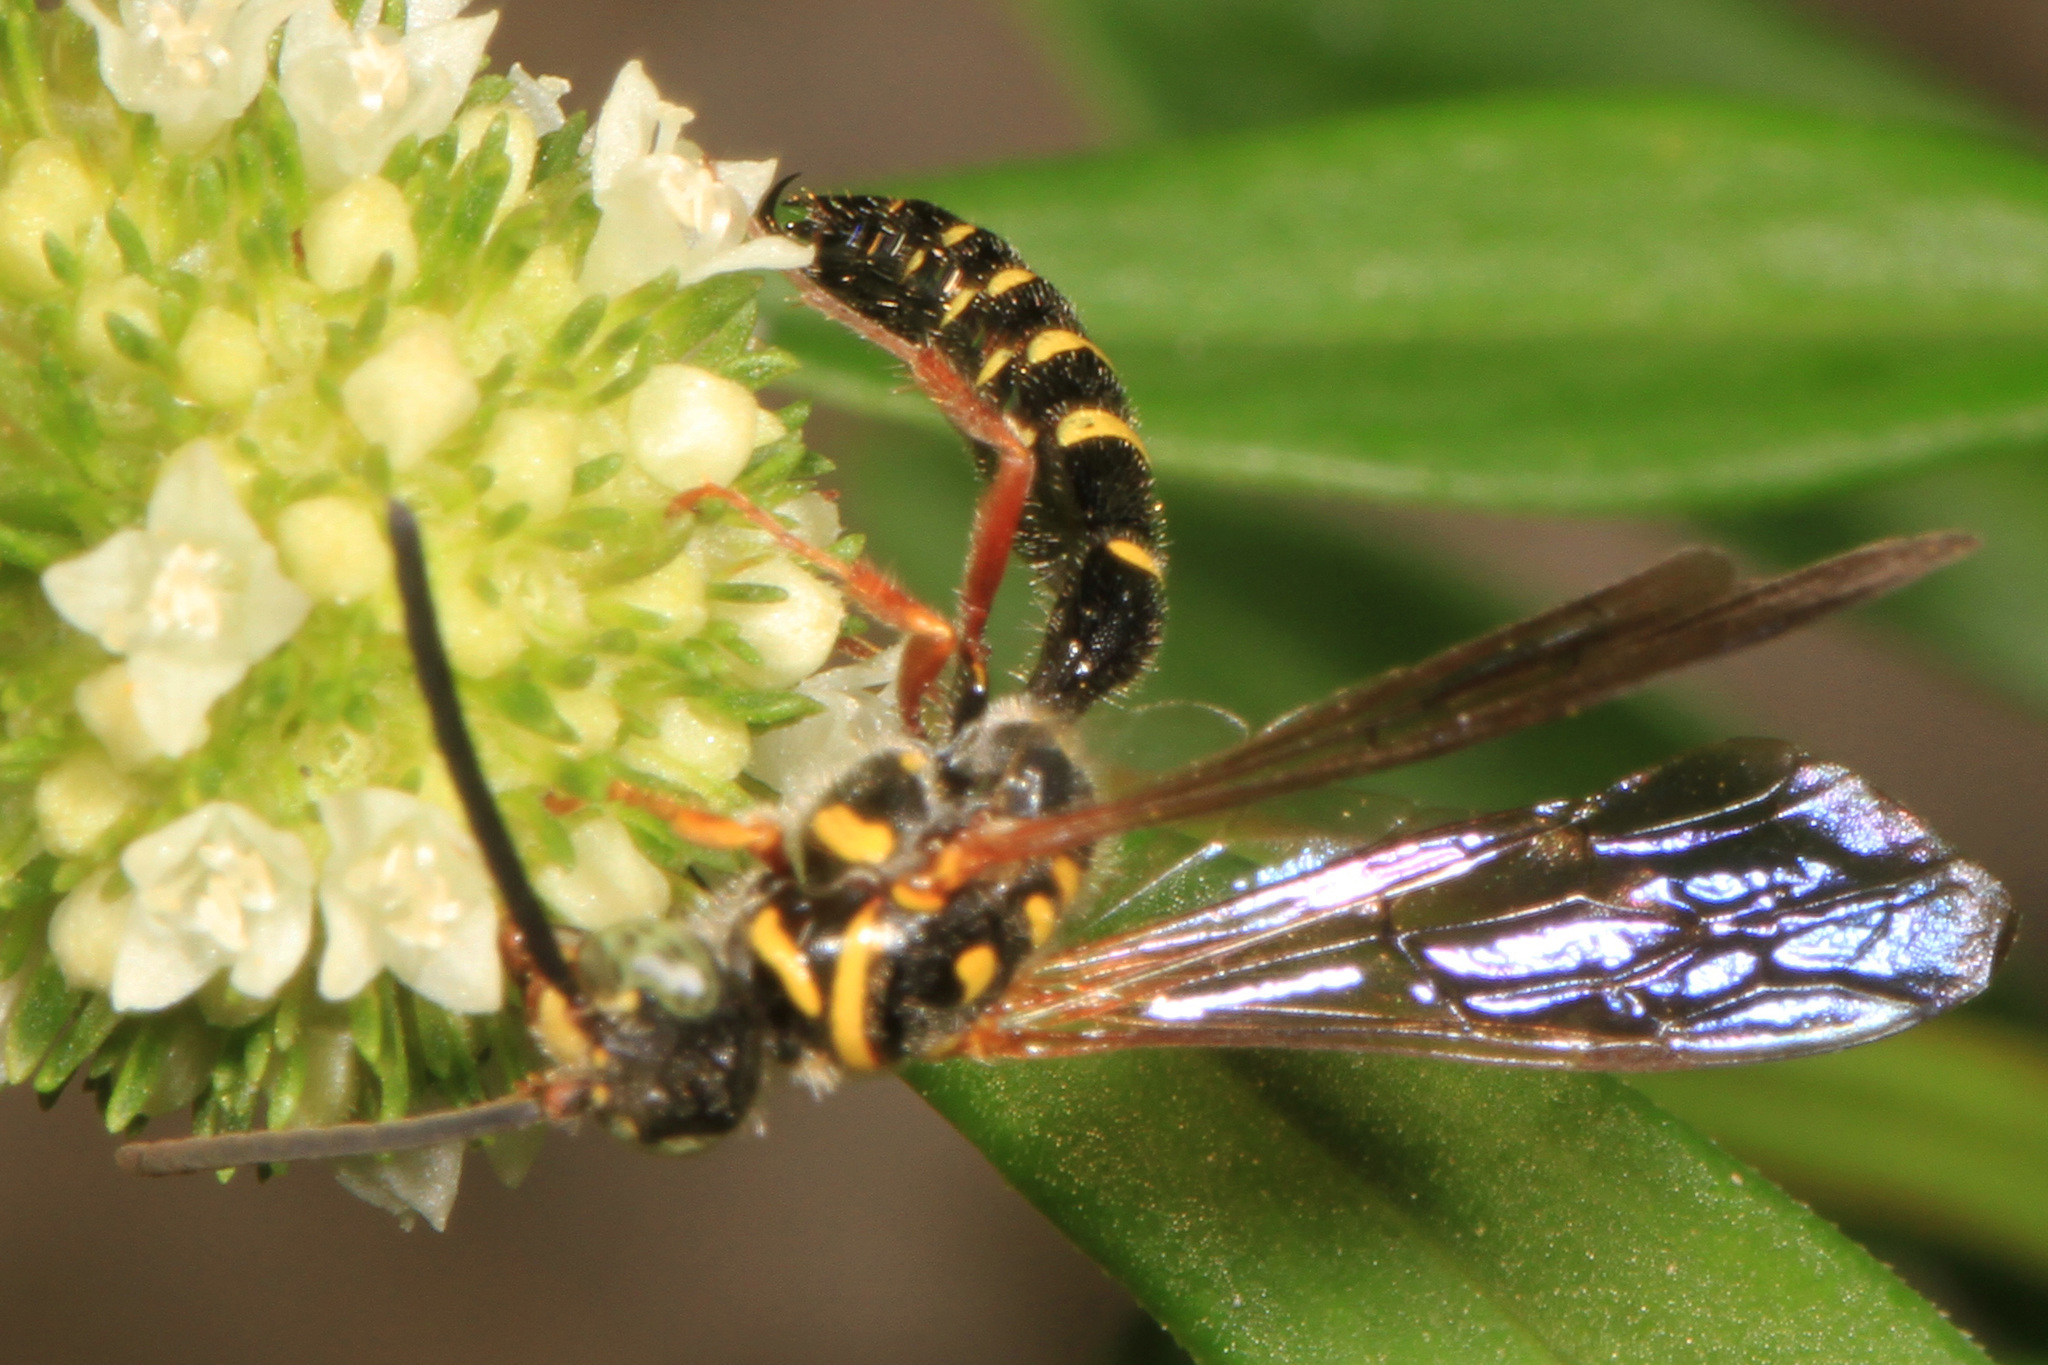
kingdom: Animalia
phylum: Arthropoda
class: Insecta
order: Hymenoptera
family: Tiphiidae
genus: Myzinum
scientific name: Myzinum dubiosum
